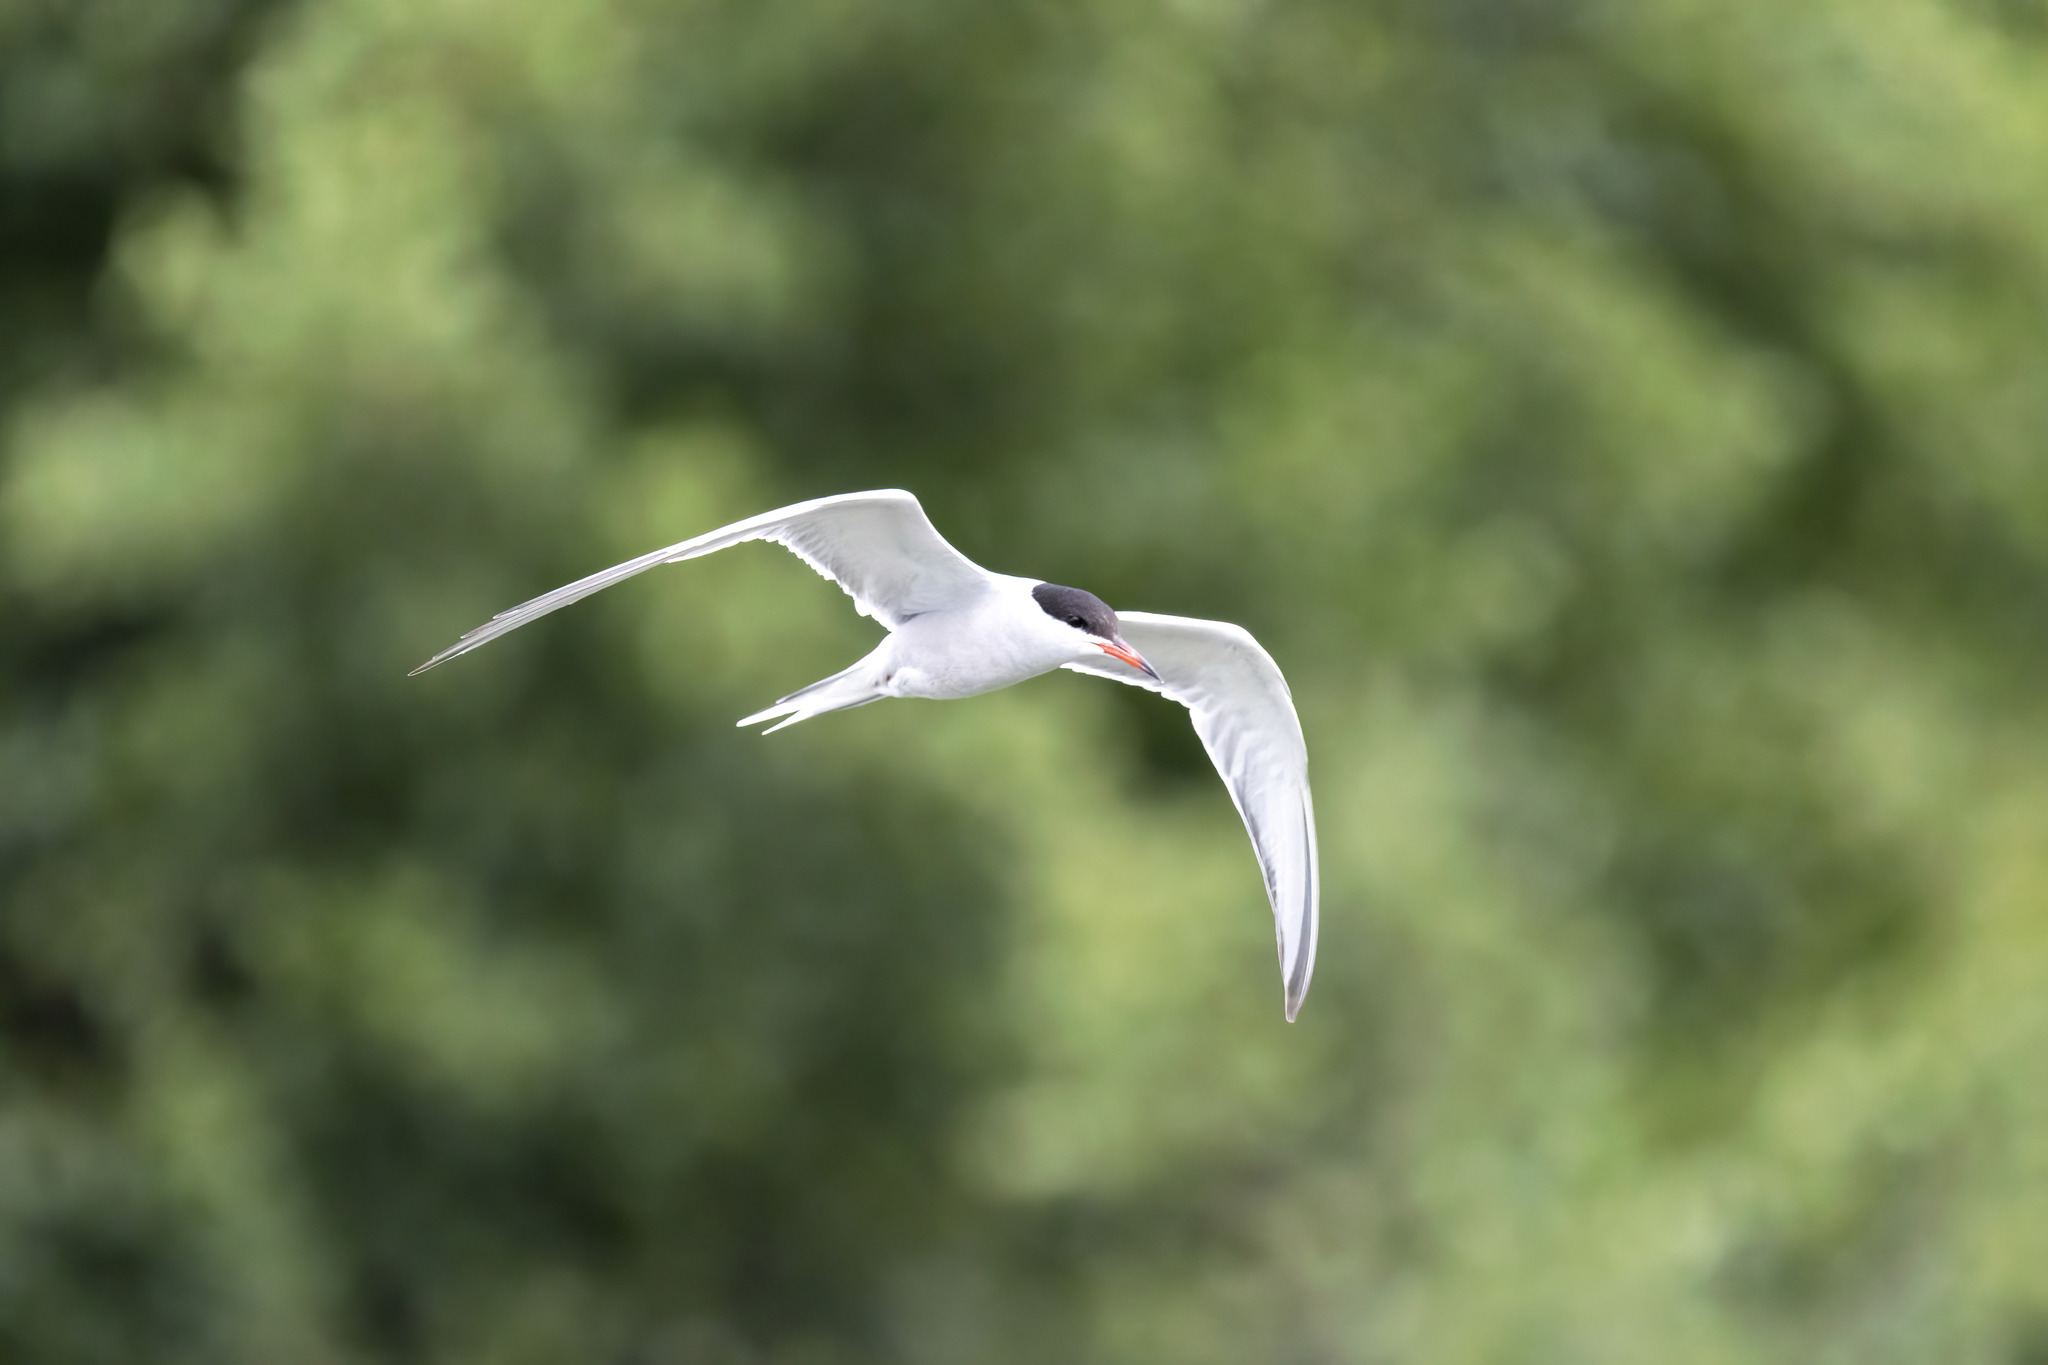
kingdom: Animalia
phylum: Chordata
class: Aves
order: Charadriiformes
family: Laridae
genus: Sterna
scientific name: Sterna hirundo
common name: Common tern
